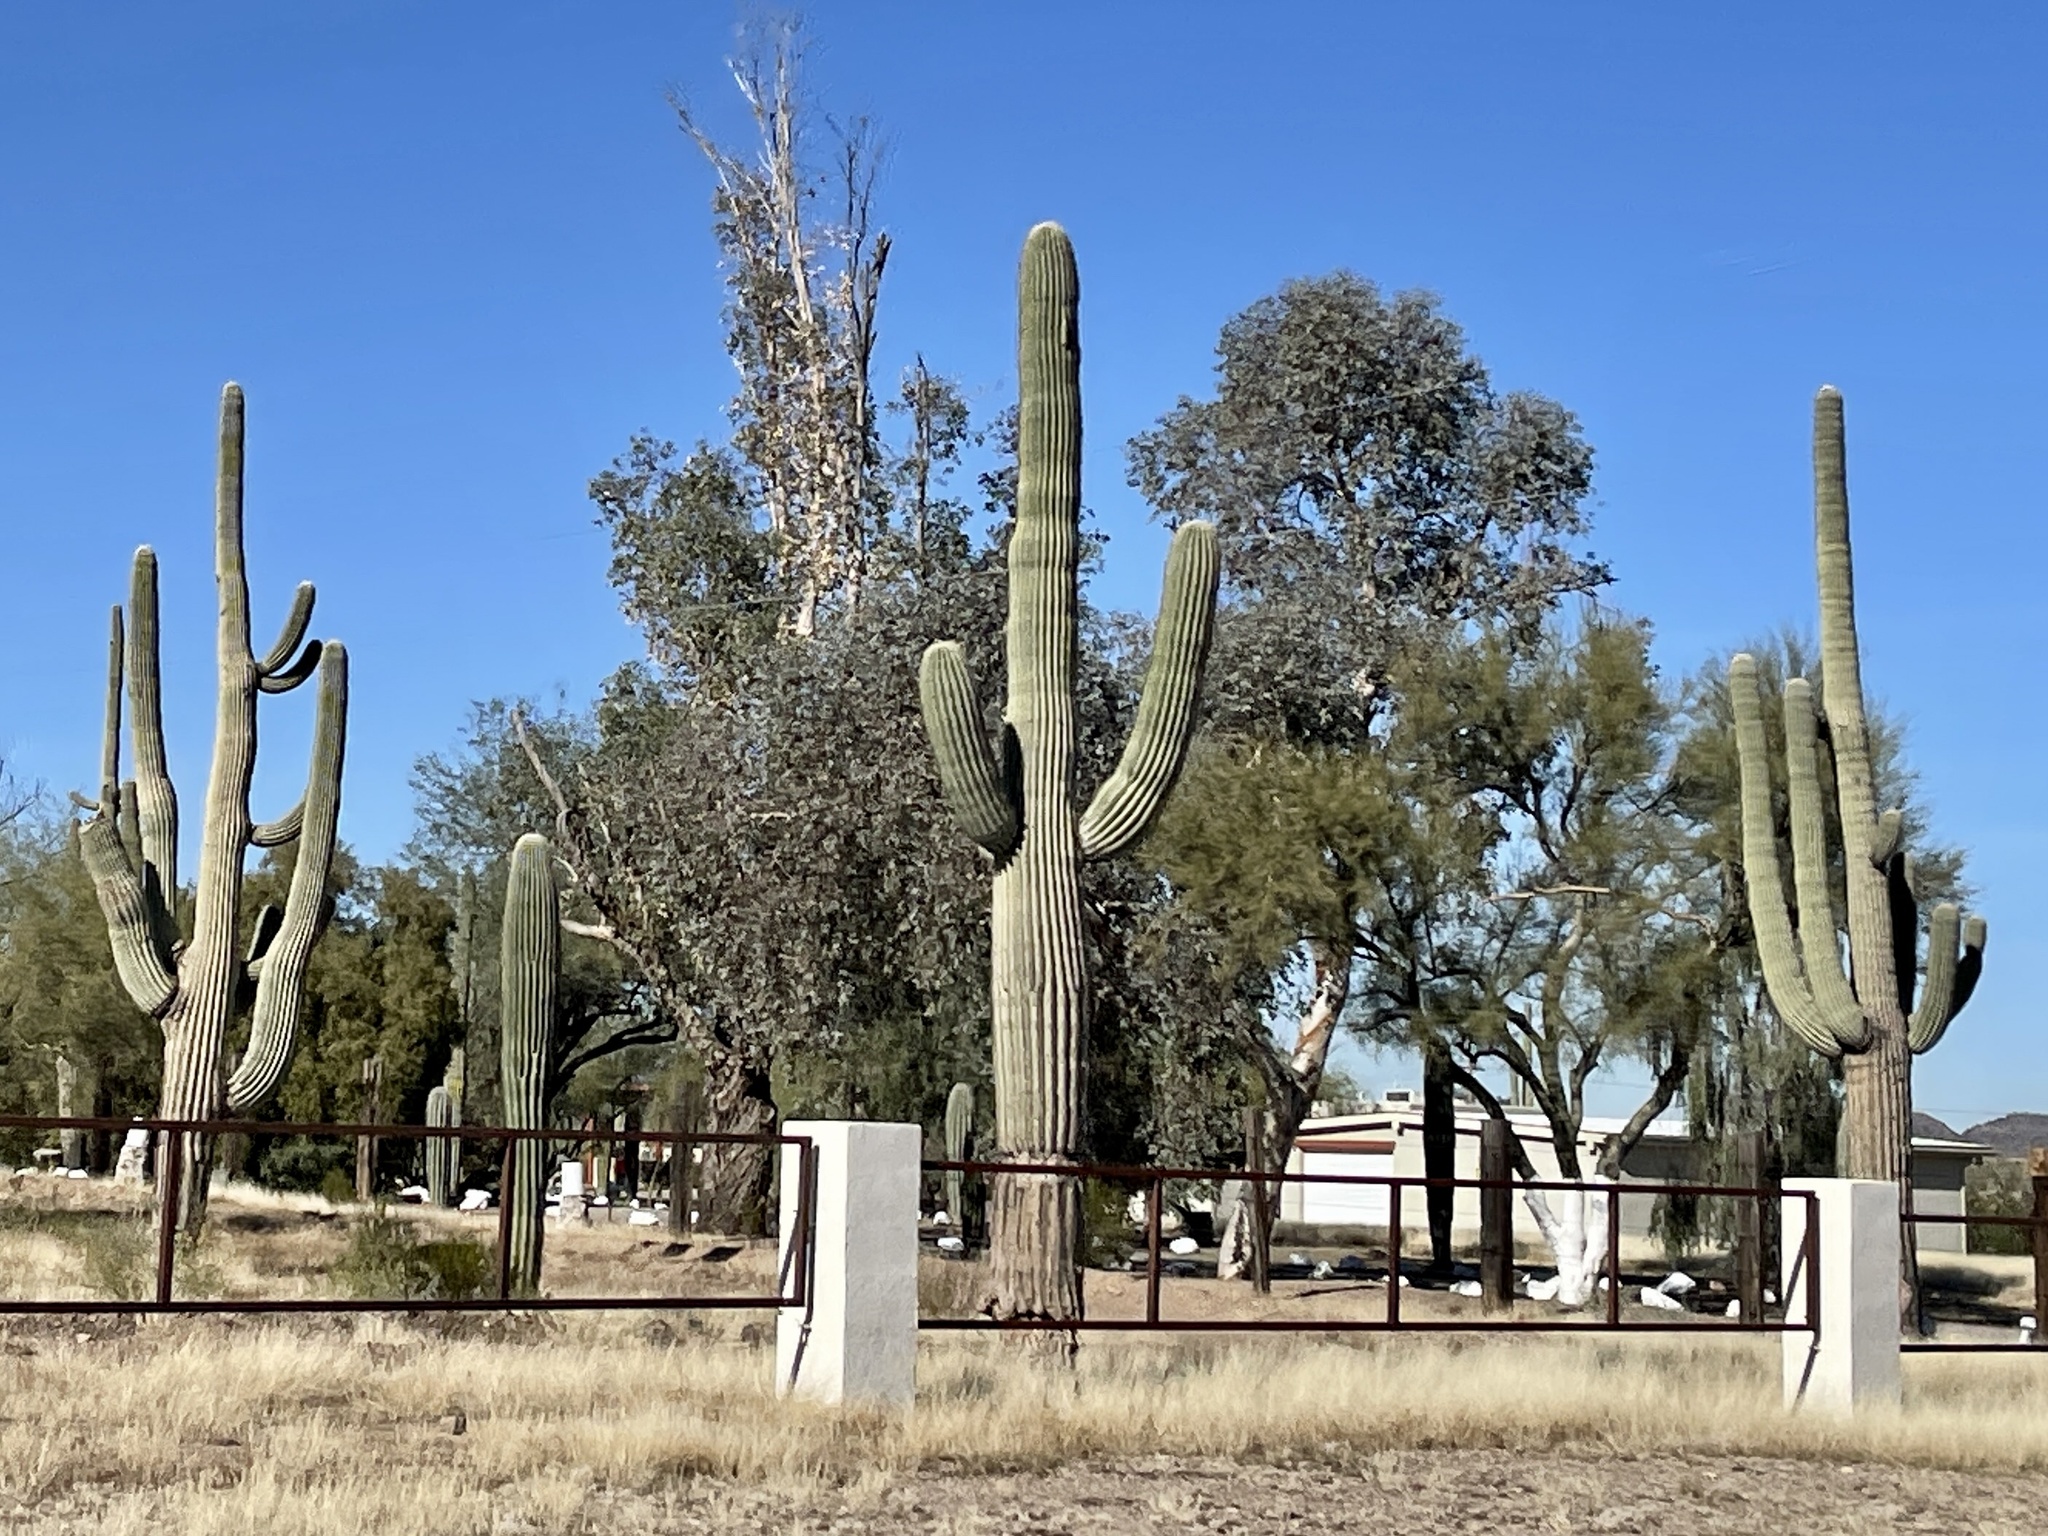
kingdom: Plantae
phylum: Tracheophyta
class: Magnoliopsida
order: Caryophyllales
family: Cactaceae
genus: Carnegiea
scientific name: Carnegiea gigantea
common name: Saguaro
